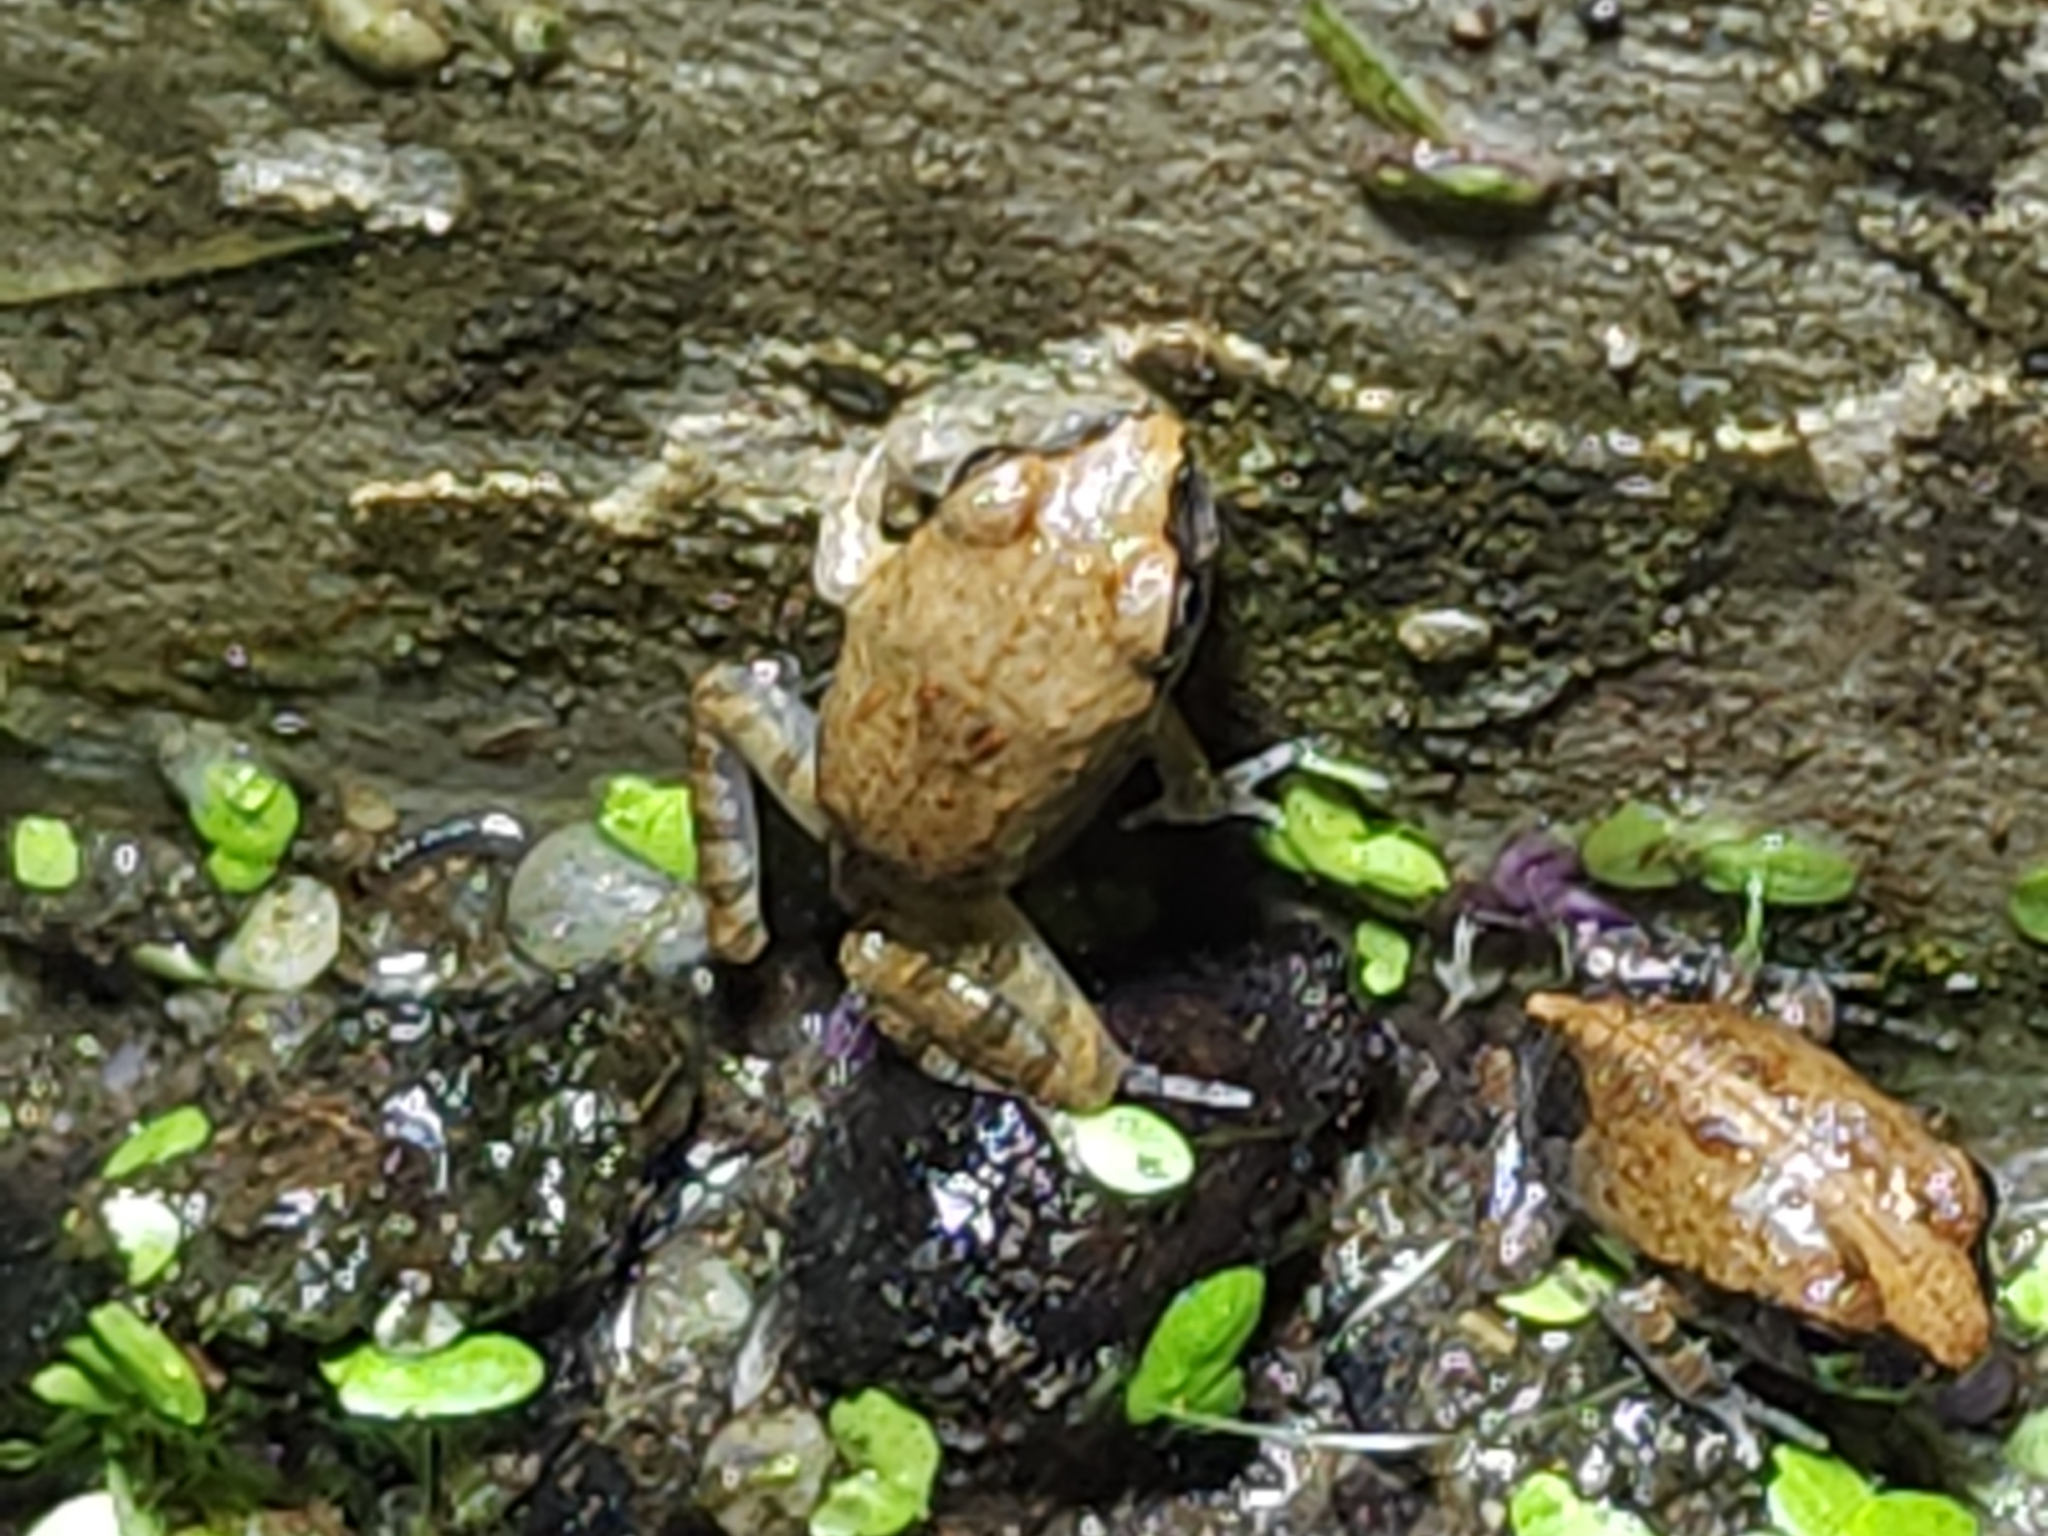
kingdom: Animalia
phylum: Chordata
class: Amphibia
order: Anura
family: Limnodynastidae
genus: Platyplectrum
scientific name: Platyplectrum ornatum
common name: Ornate burrowing frog
